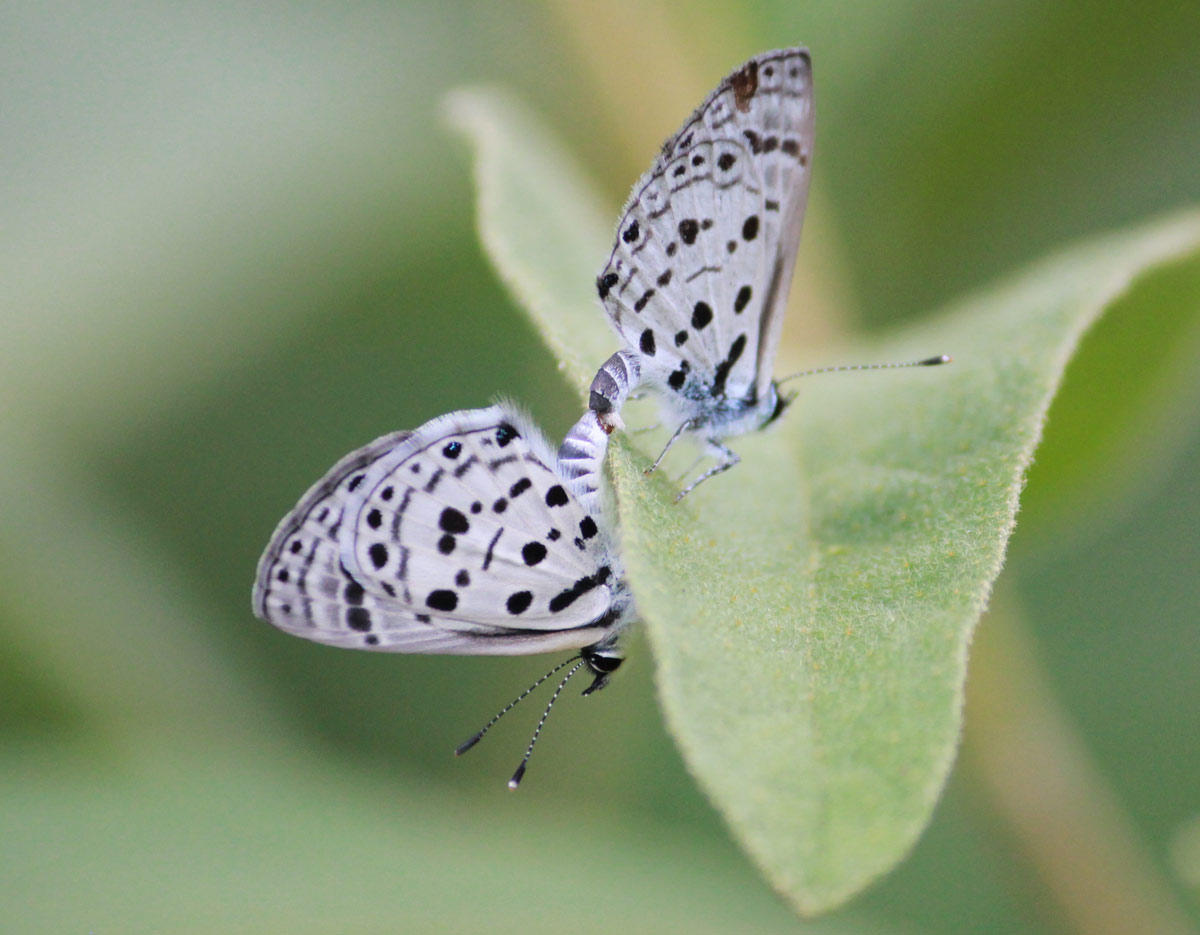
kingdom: Animalia
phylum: Arthropoda
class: Insecta
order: Lepidoptera
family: Lycaenidae
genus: Azanus
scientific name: Azanus moriqua
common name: Thorn-tree babul blue
